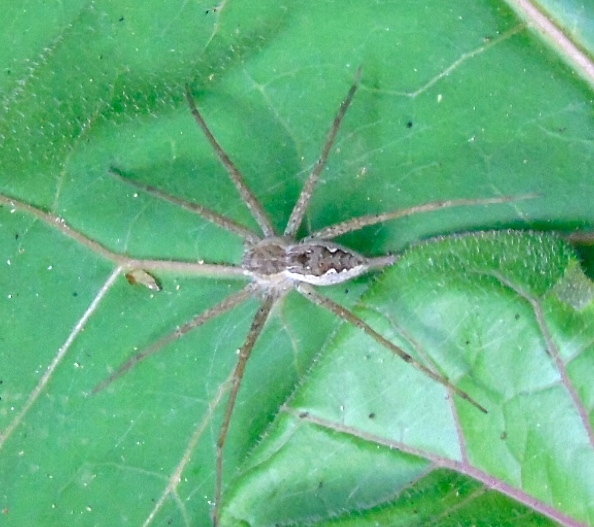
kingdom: Animalia
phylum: Arthropoda
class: Arachnida
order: Araneae
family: Pisauridae
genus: Tinus
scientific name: Tinus
